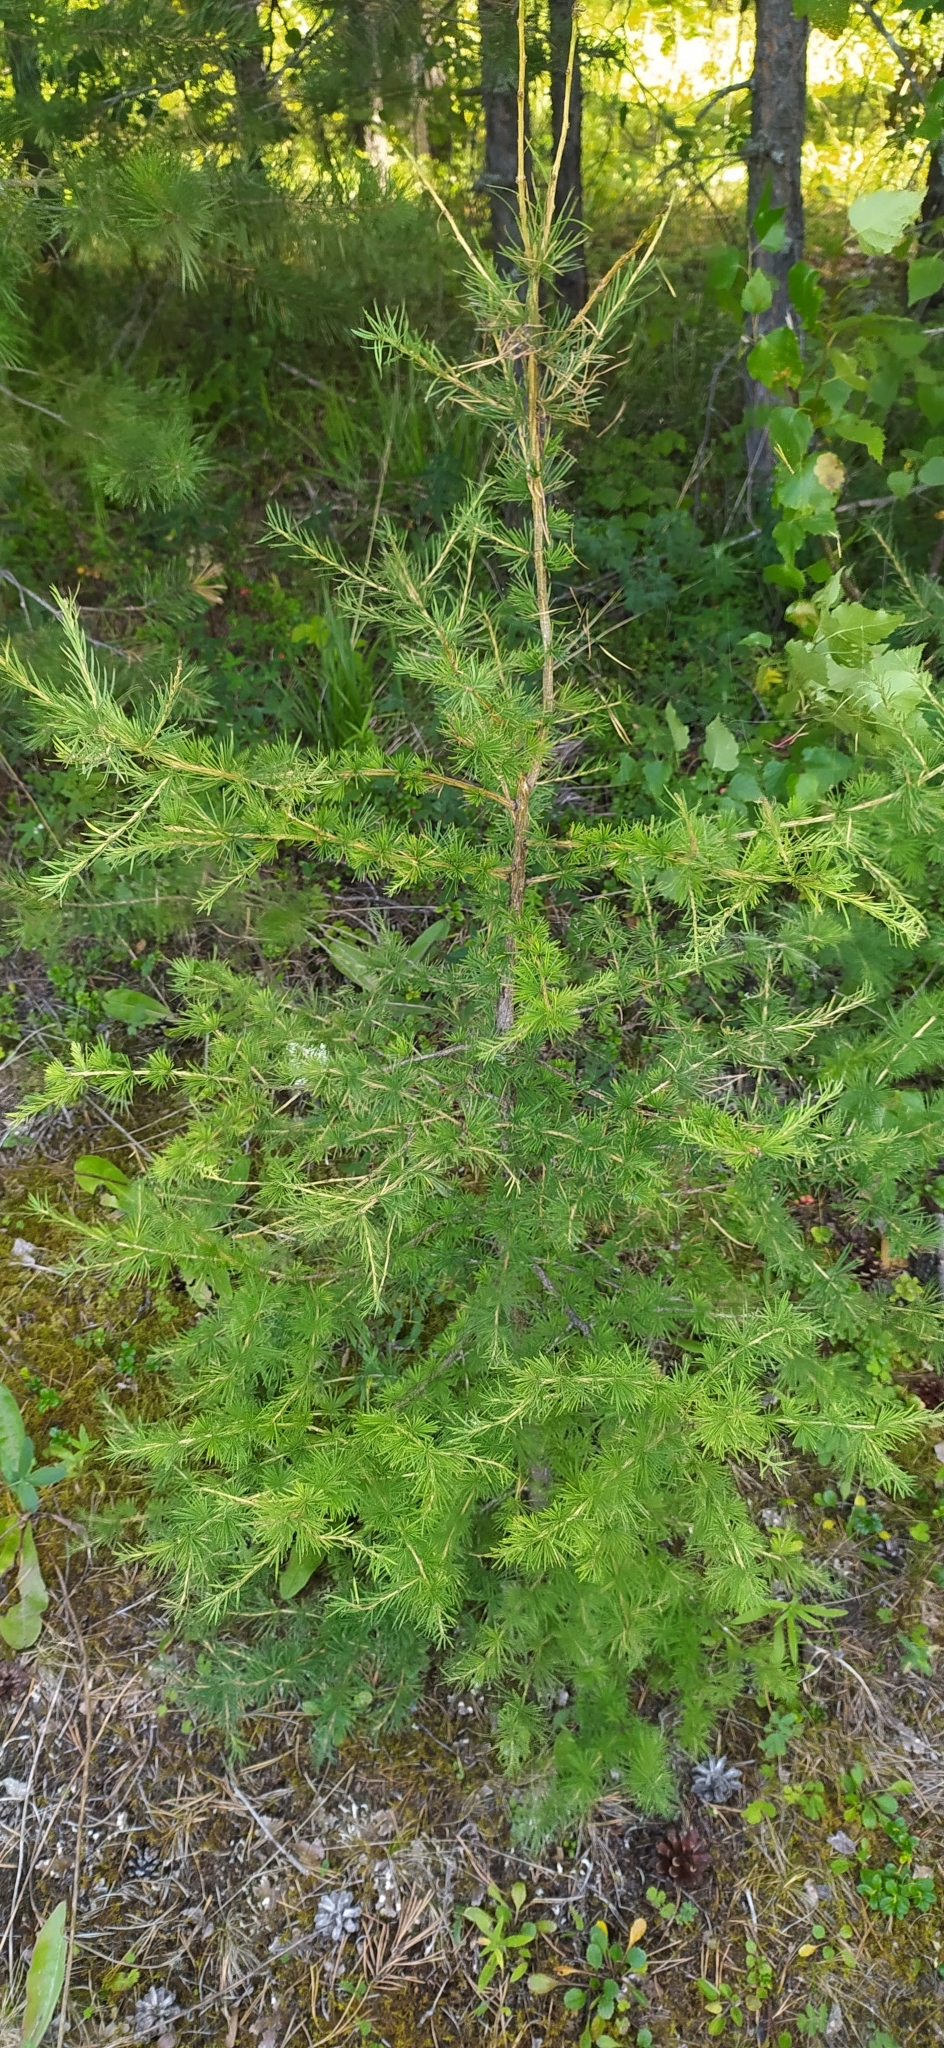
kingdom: Plantae
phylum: Tracheophyta
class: Pinopsida
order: Pinales
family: Pinaceae
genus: Larix
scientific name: Larix sibirica
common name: Siberian larch
